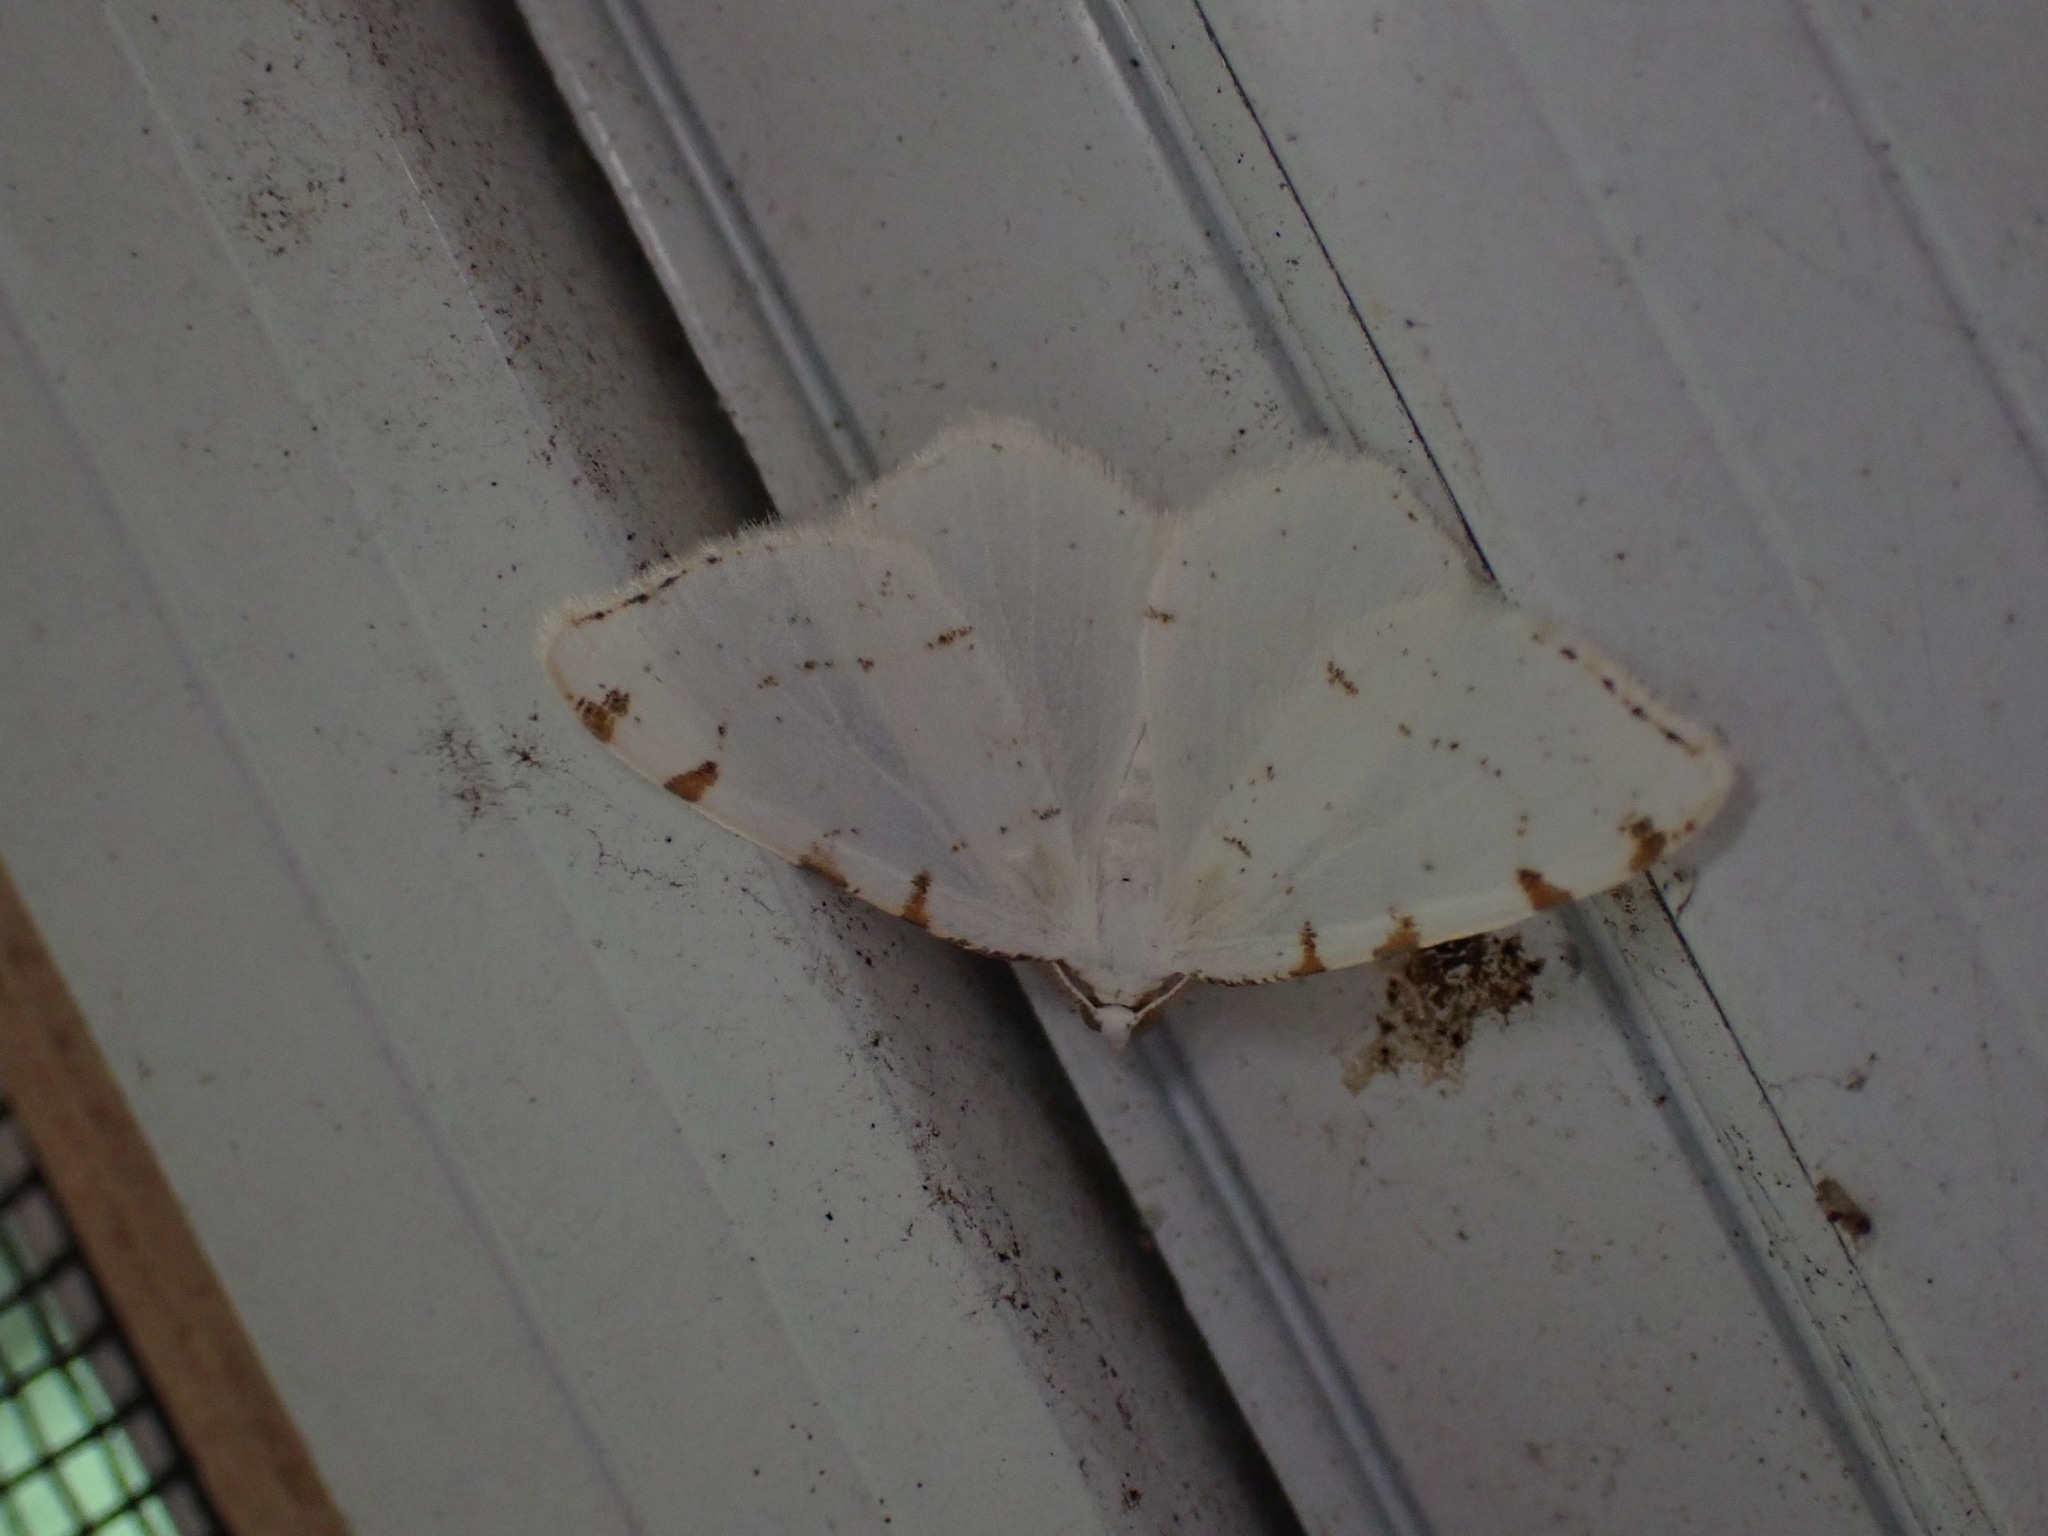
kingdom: Animalia
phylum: Arthropoda
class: Insecta
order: Lepidoptera
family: Geometridae
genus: Macaria
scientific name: Macaria pustularia
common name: Lesser maple spanworm moth
